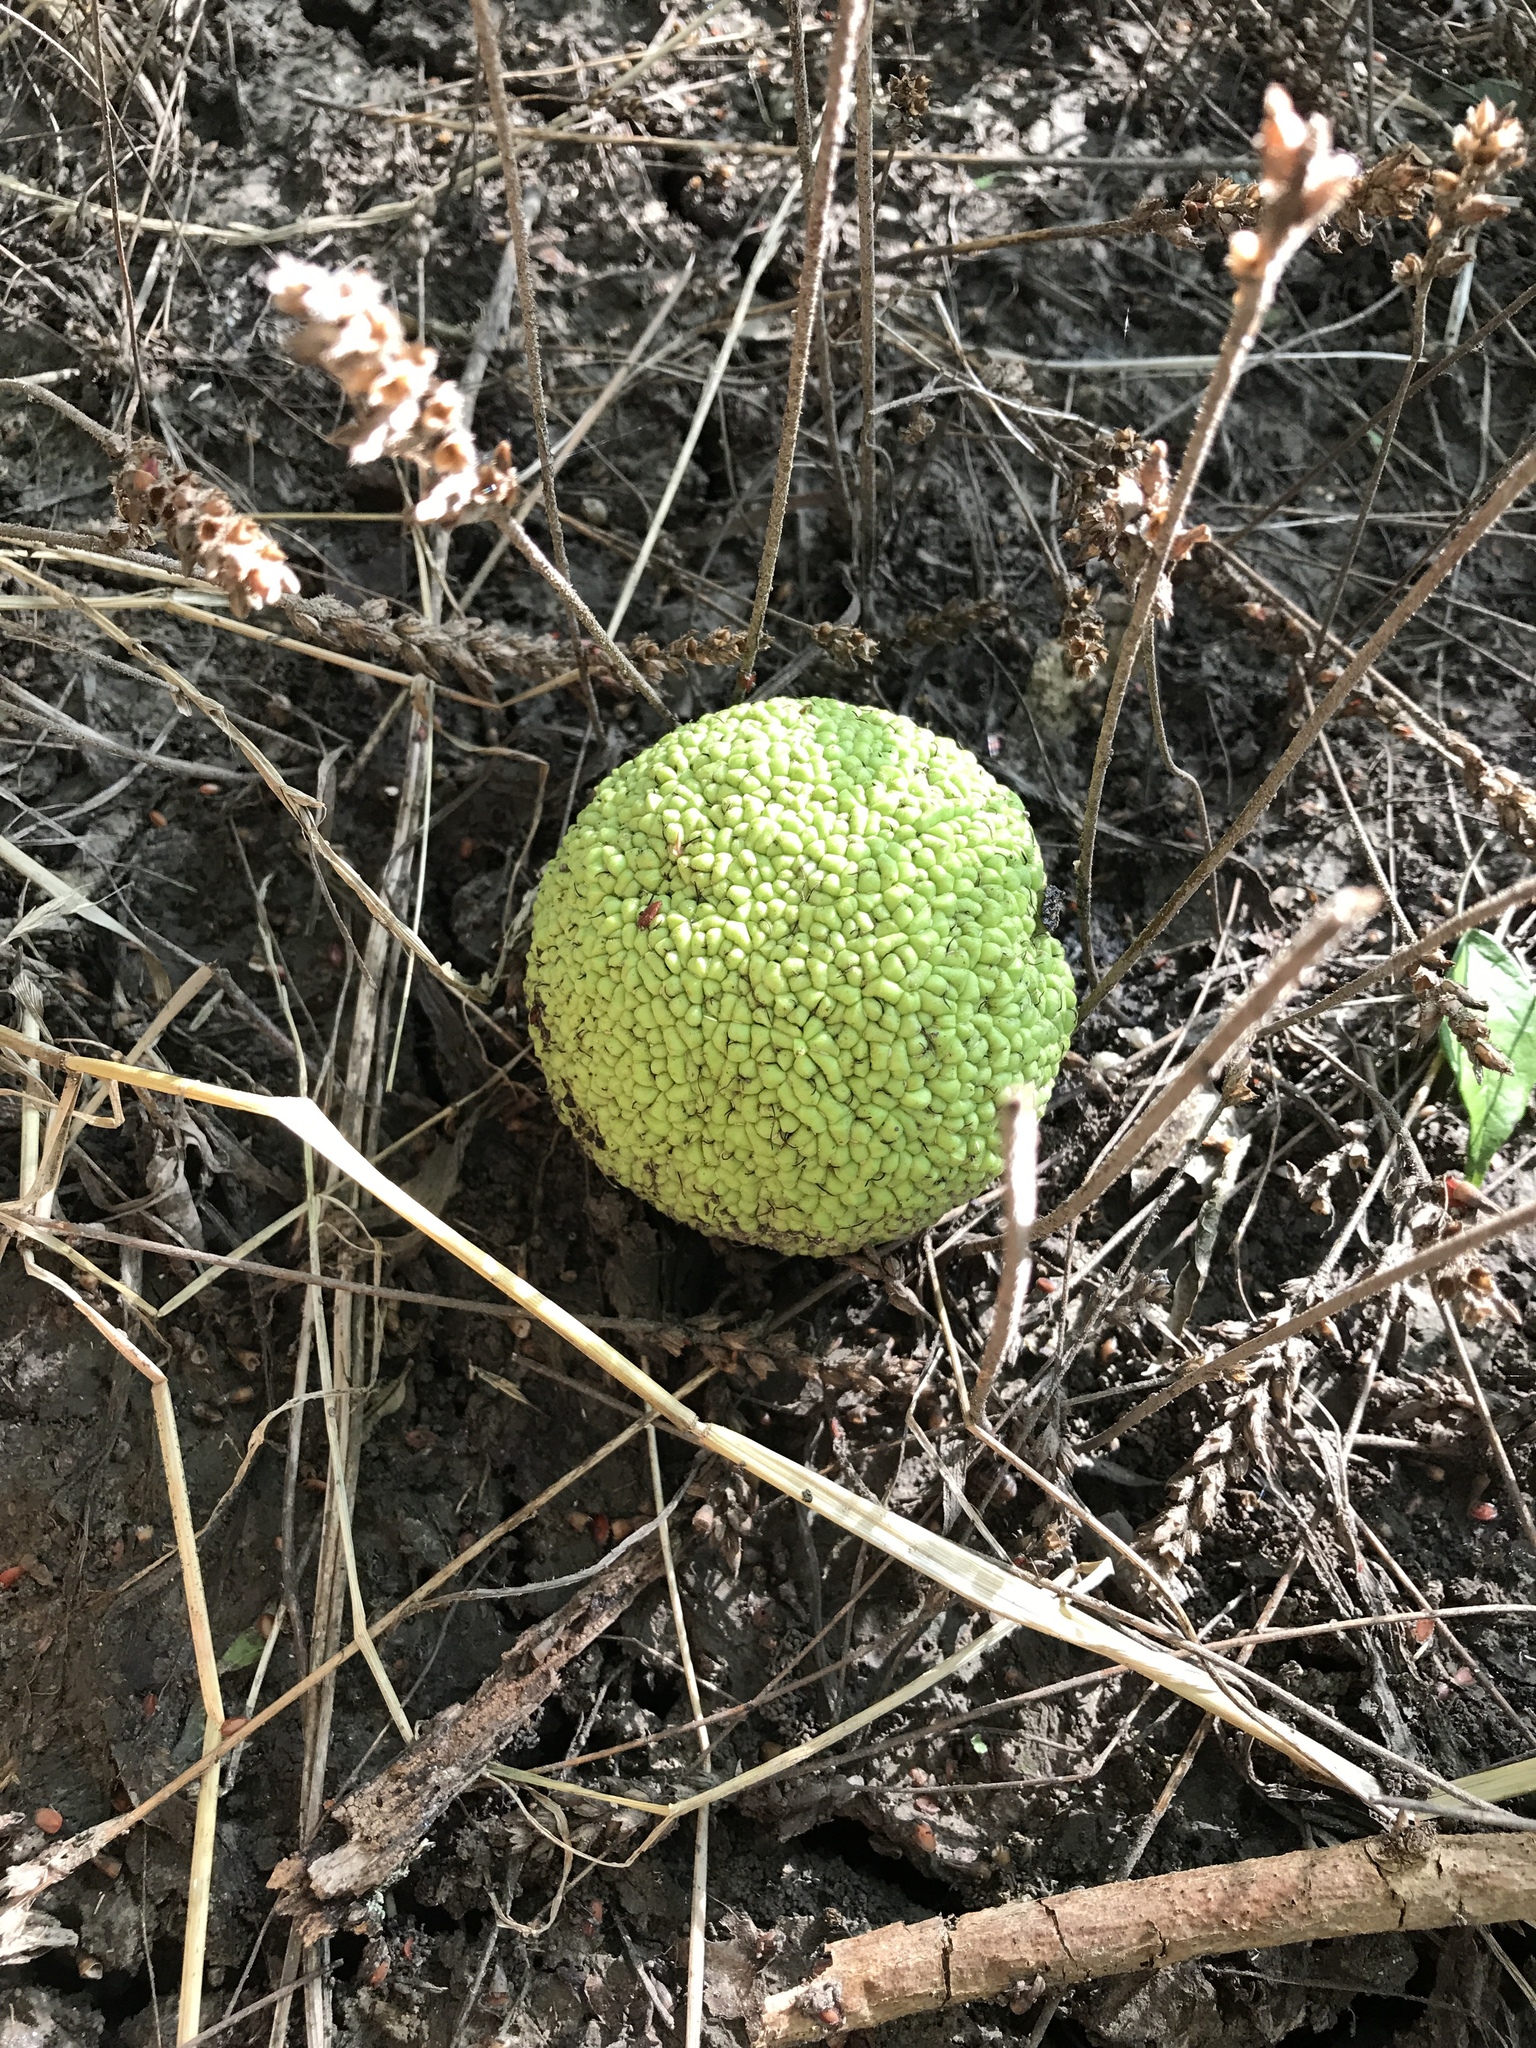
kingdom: Plantae
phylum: Tracheophyta
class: Magnoliopsida
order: Rosales
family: Moraceae
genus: Maclura
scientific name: Maclura pomifera
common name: Osage-orange
